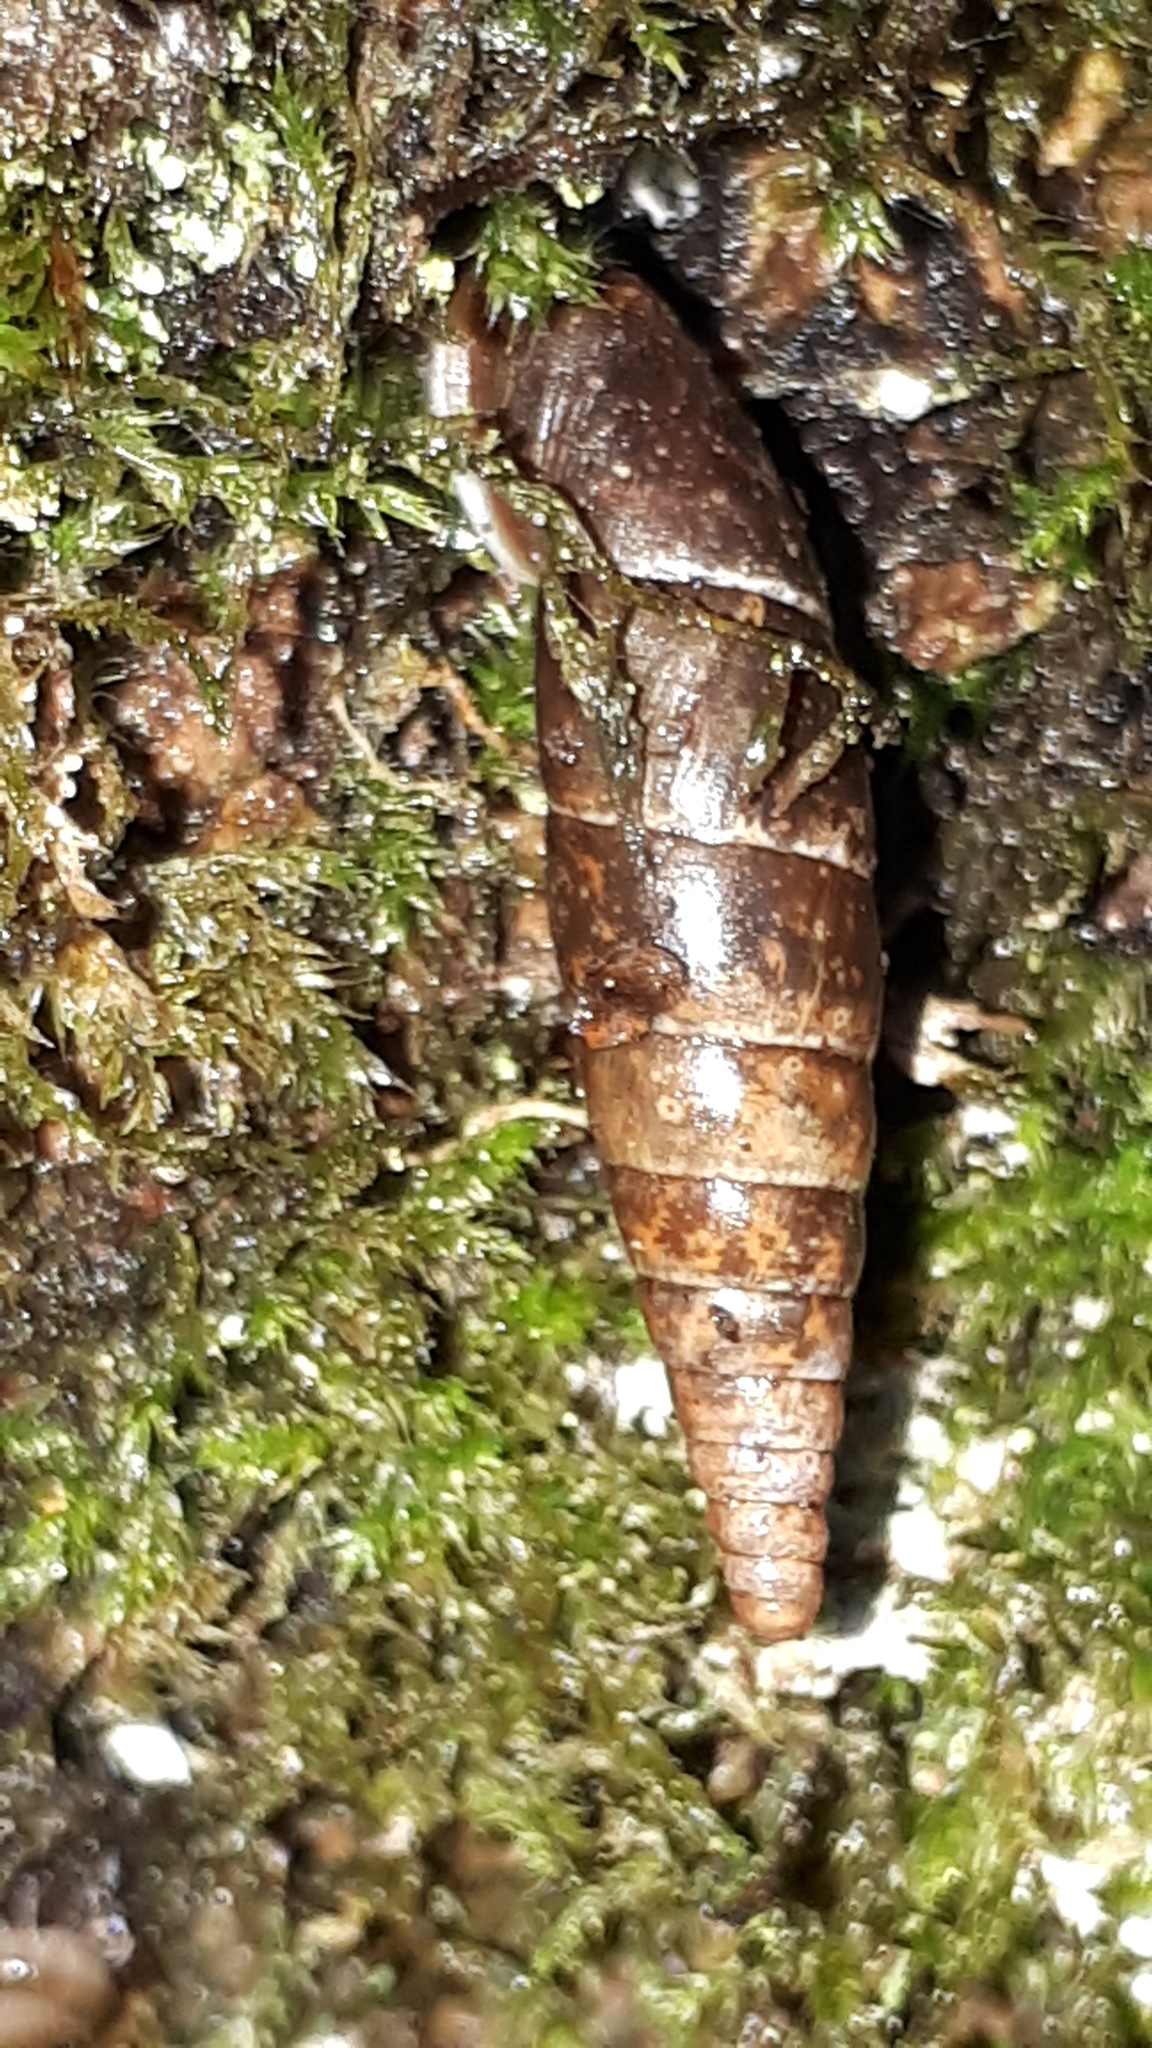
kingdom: Animalia
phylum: Mollusca
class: Gastropoda
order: Stylommatophora
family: Clausiliidae
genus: Cochlodina
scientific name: Cochlodina laminata
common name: Plaited door snail
